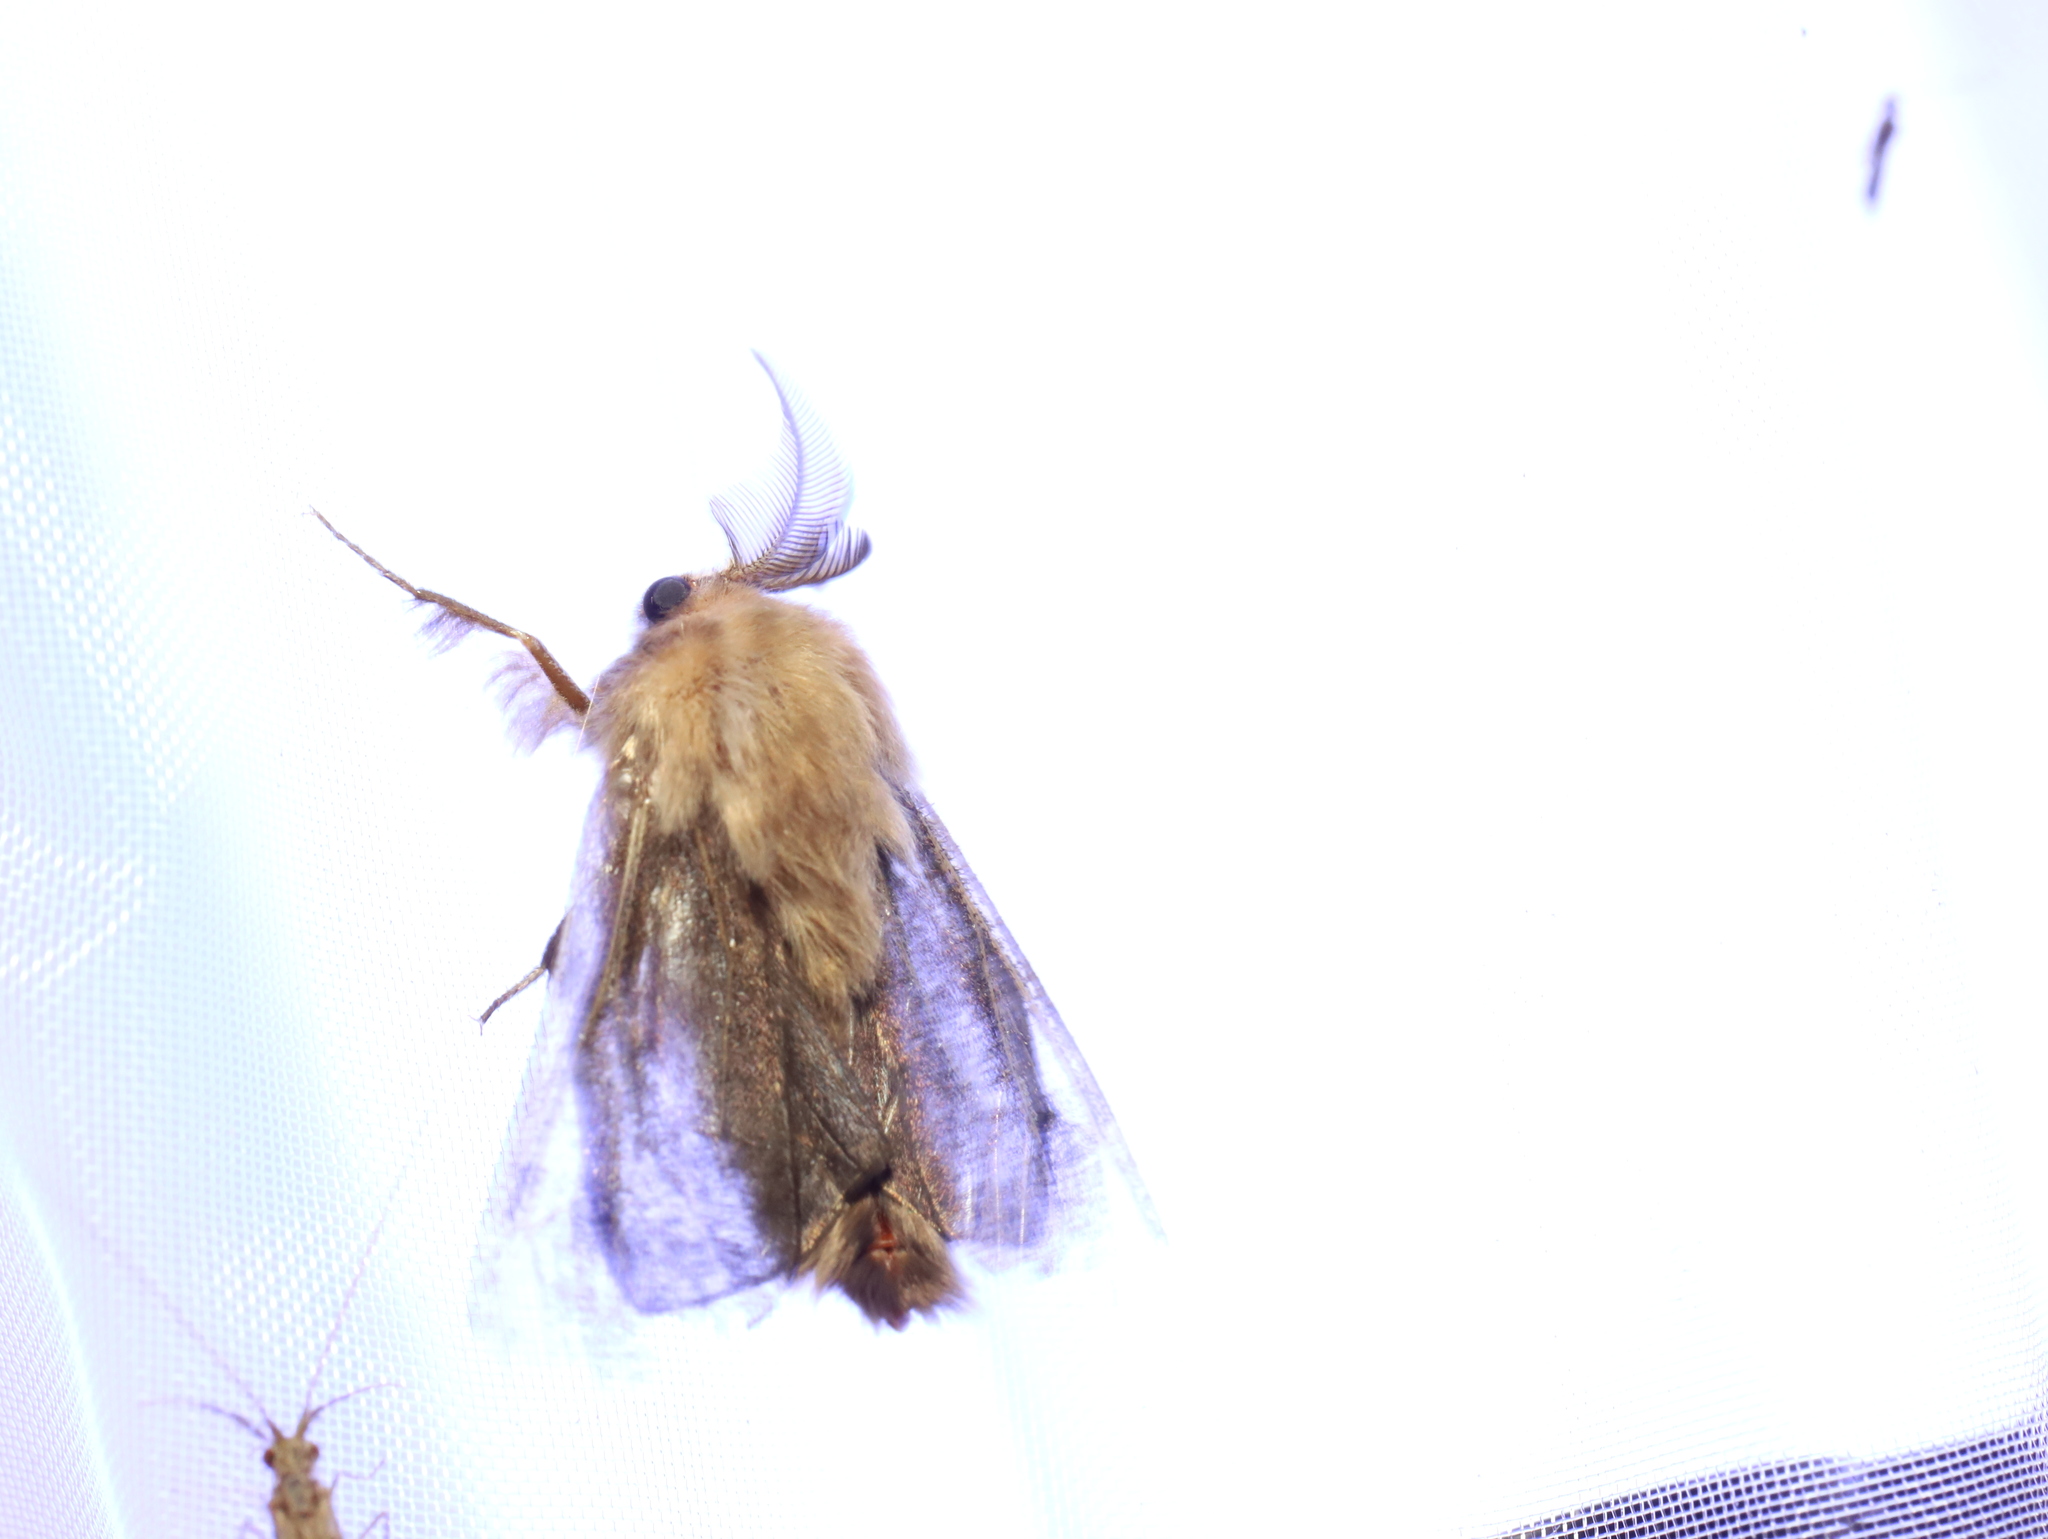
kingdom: Animalia
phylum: Arthropoda
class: Insecta
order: Lepidoptera
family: Psychidae
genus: Clania
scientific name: Clania ignobilis
